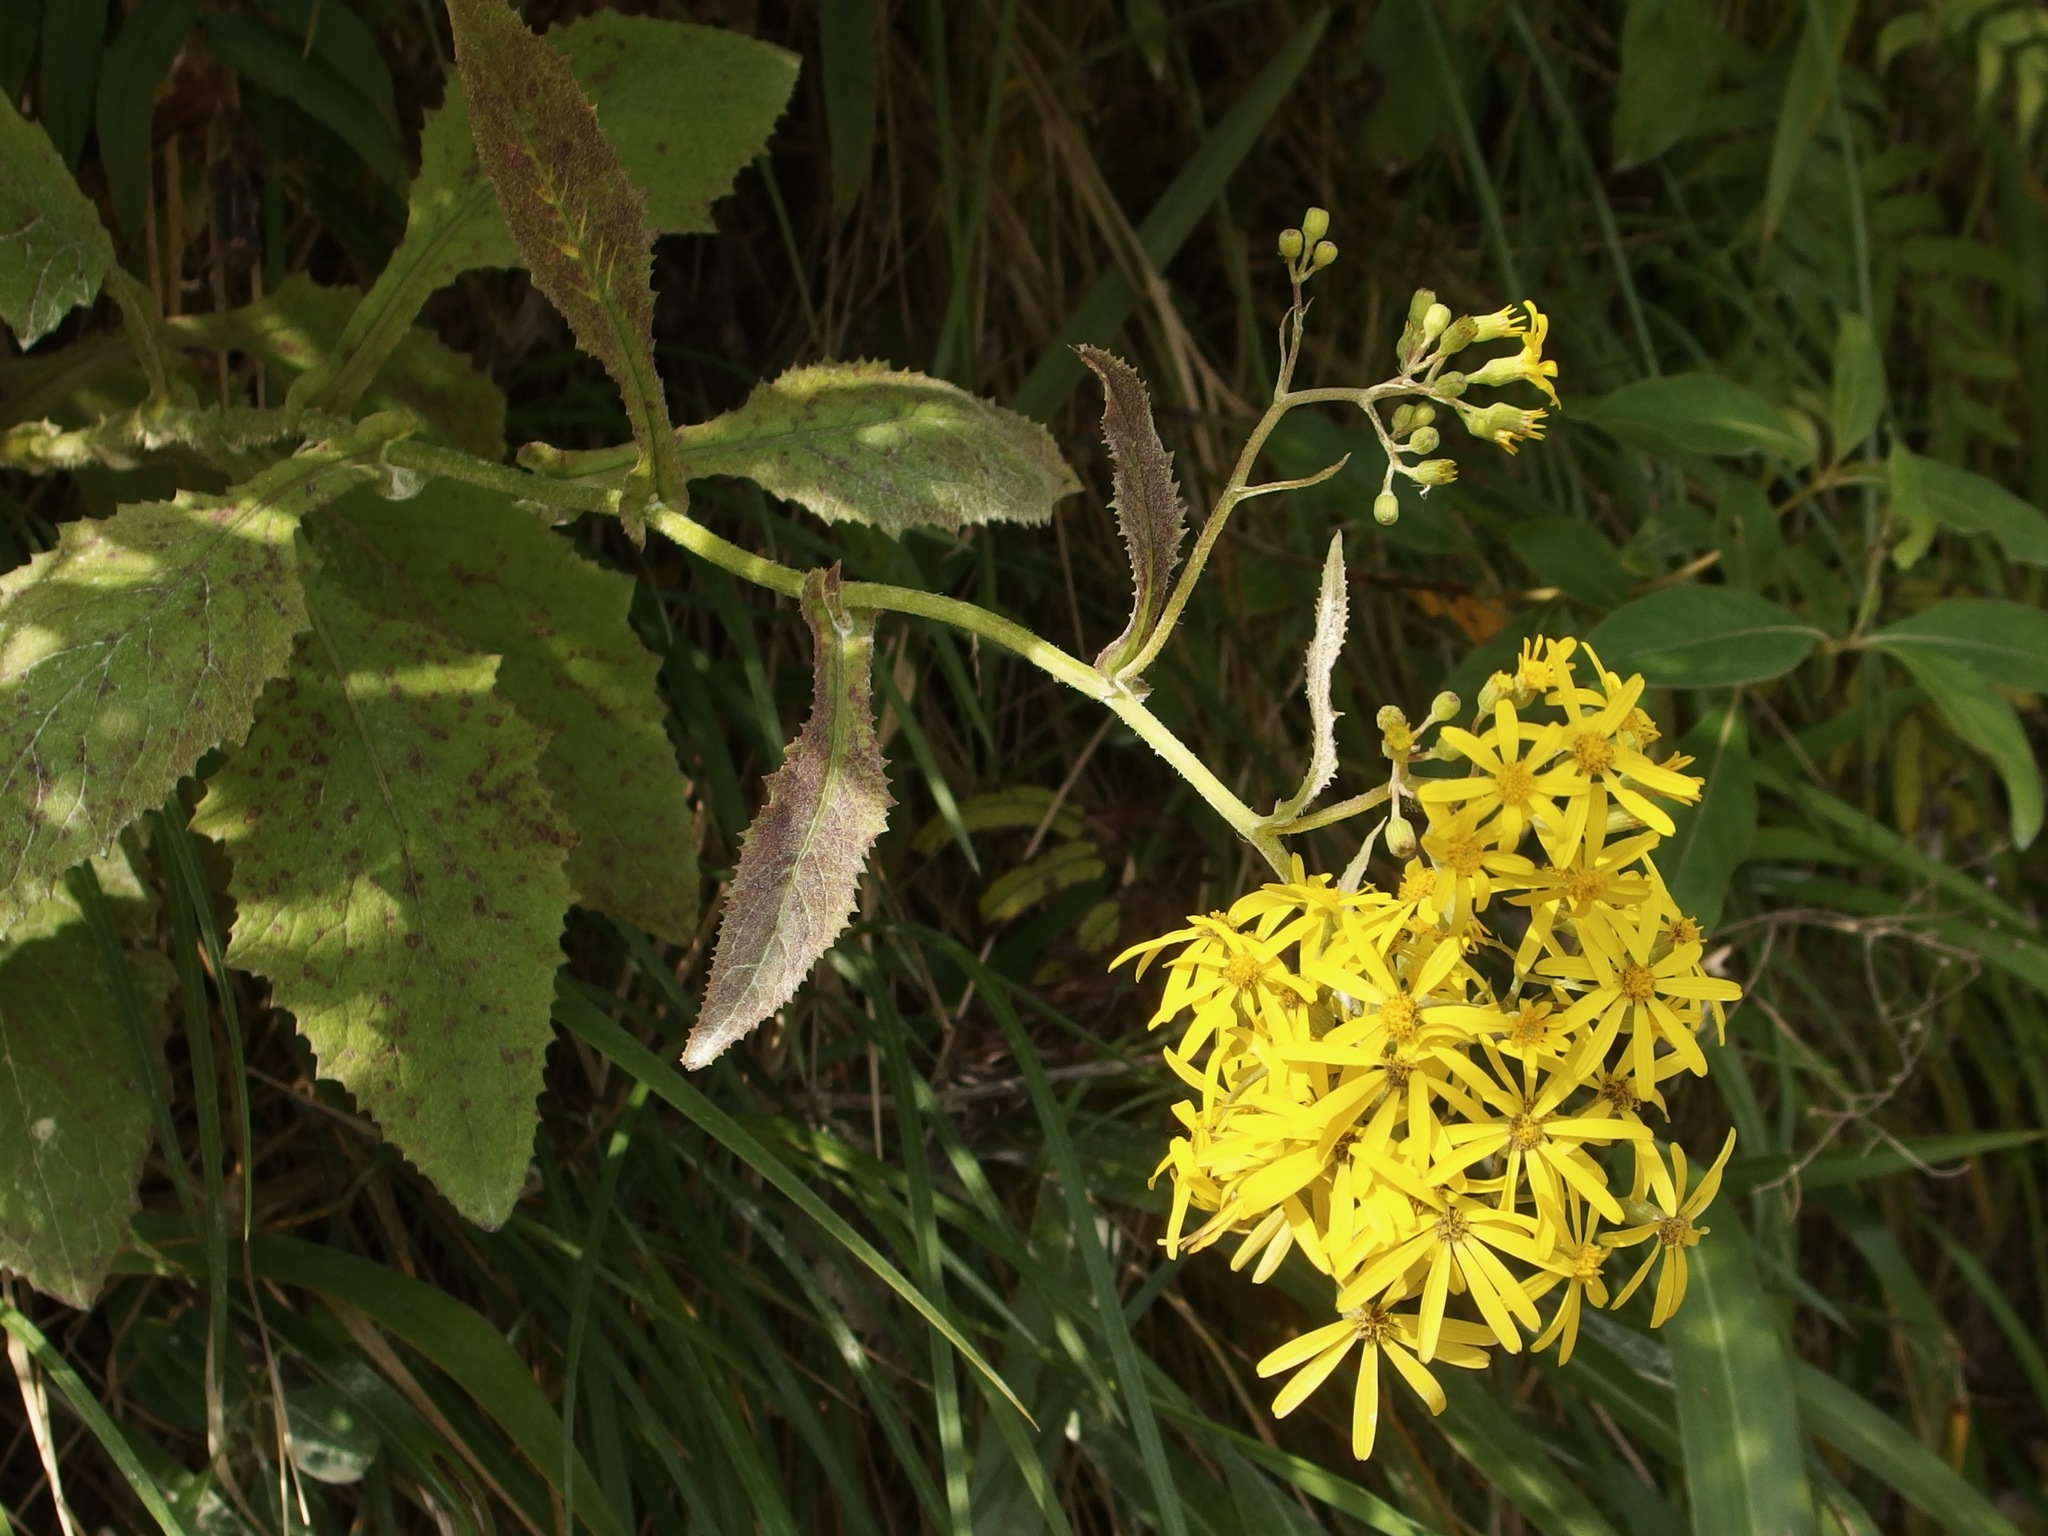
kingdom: Plantae
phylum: Tracheophyta
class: Magnoliopsida
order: Asterales
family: Asteraceae
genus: Senecio
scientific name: Senecio rufiglandulosus
